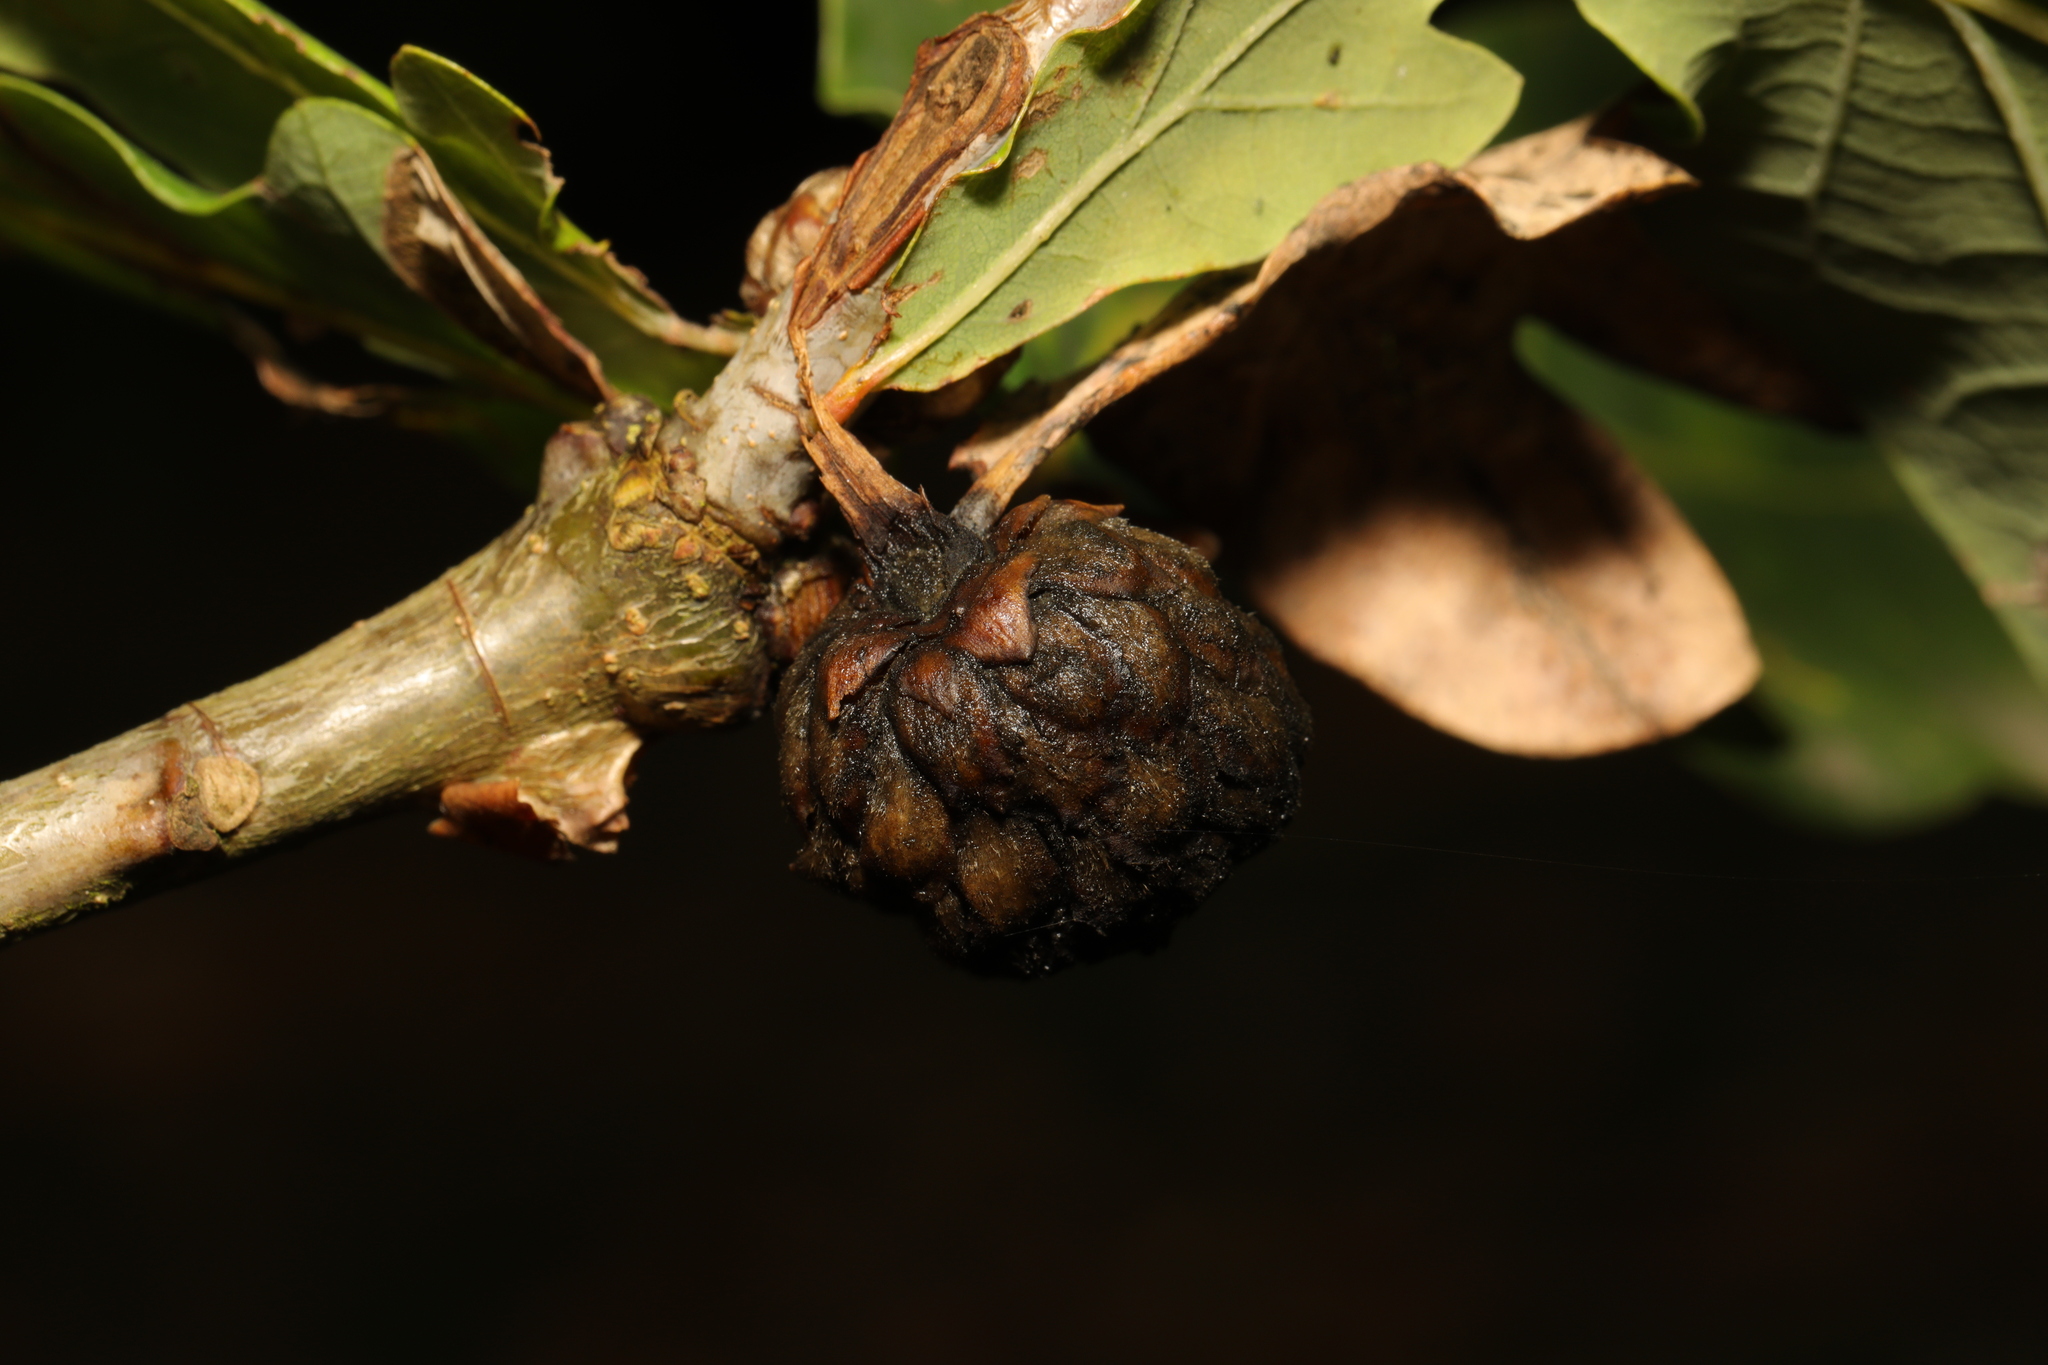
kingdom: Animalia
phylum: Arthropoda
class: Insecta
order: Hymenoptera
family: Cynipidae
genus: Andricus
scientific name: Andricus foecundatrix
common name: Artichoke gall
